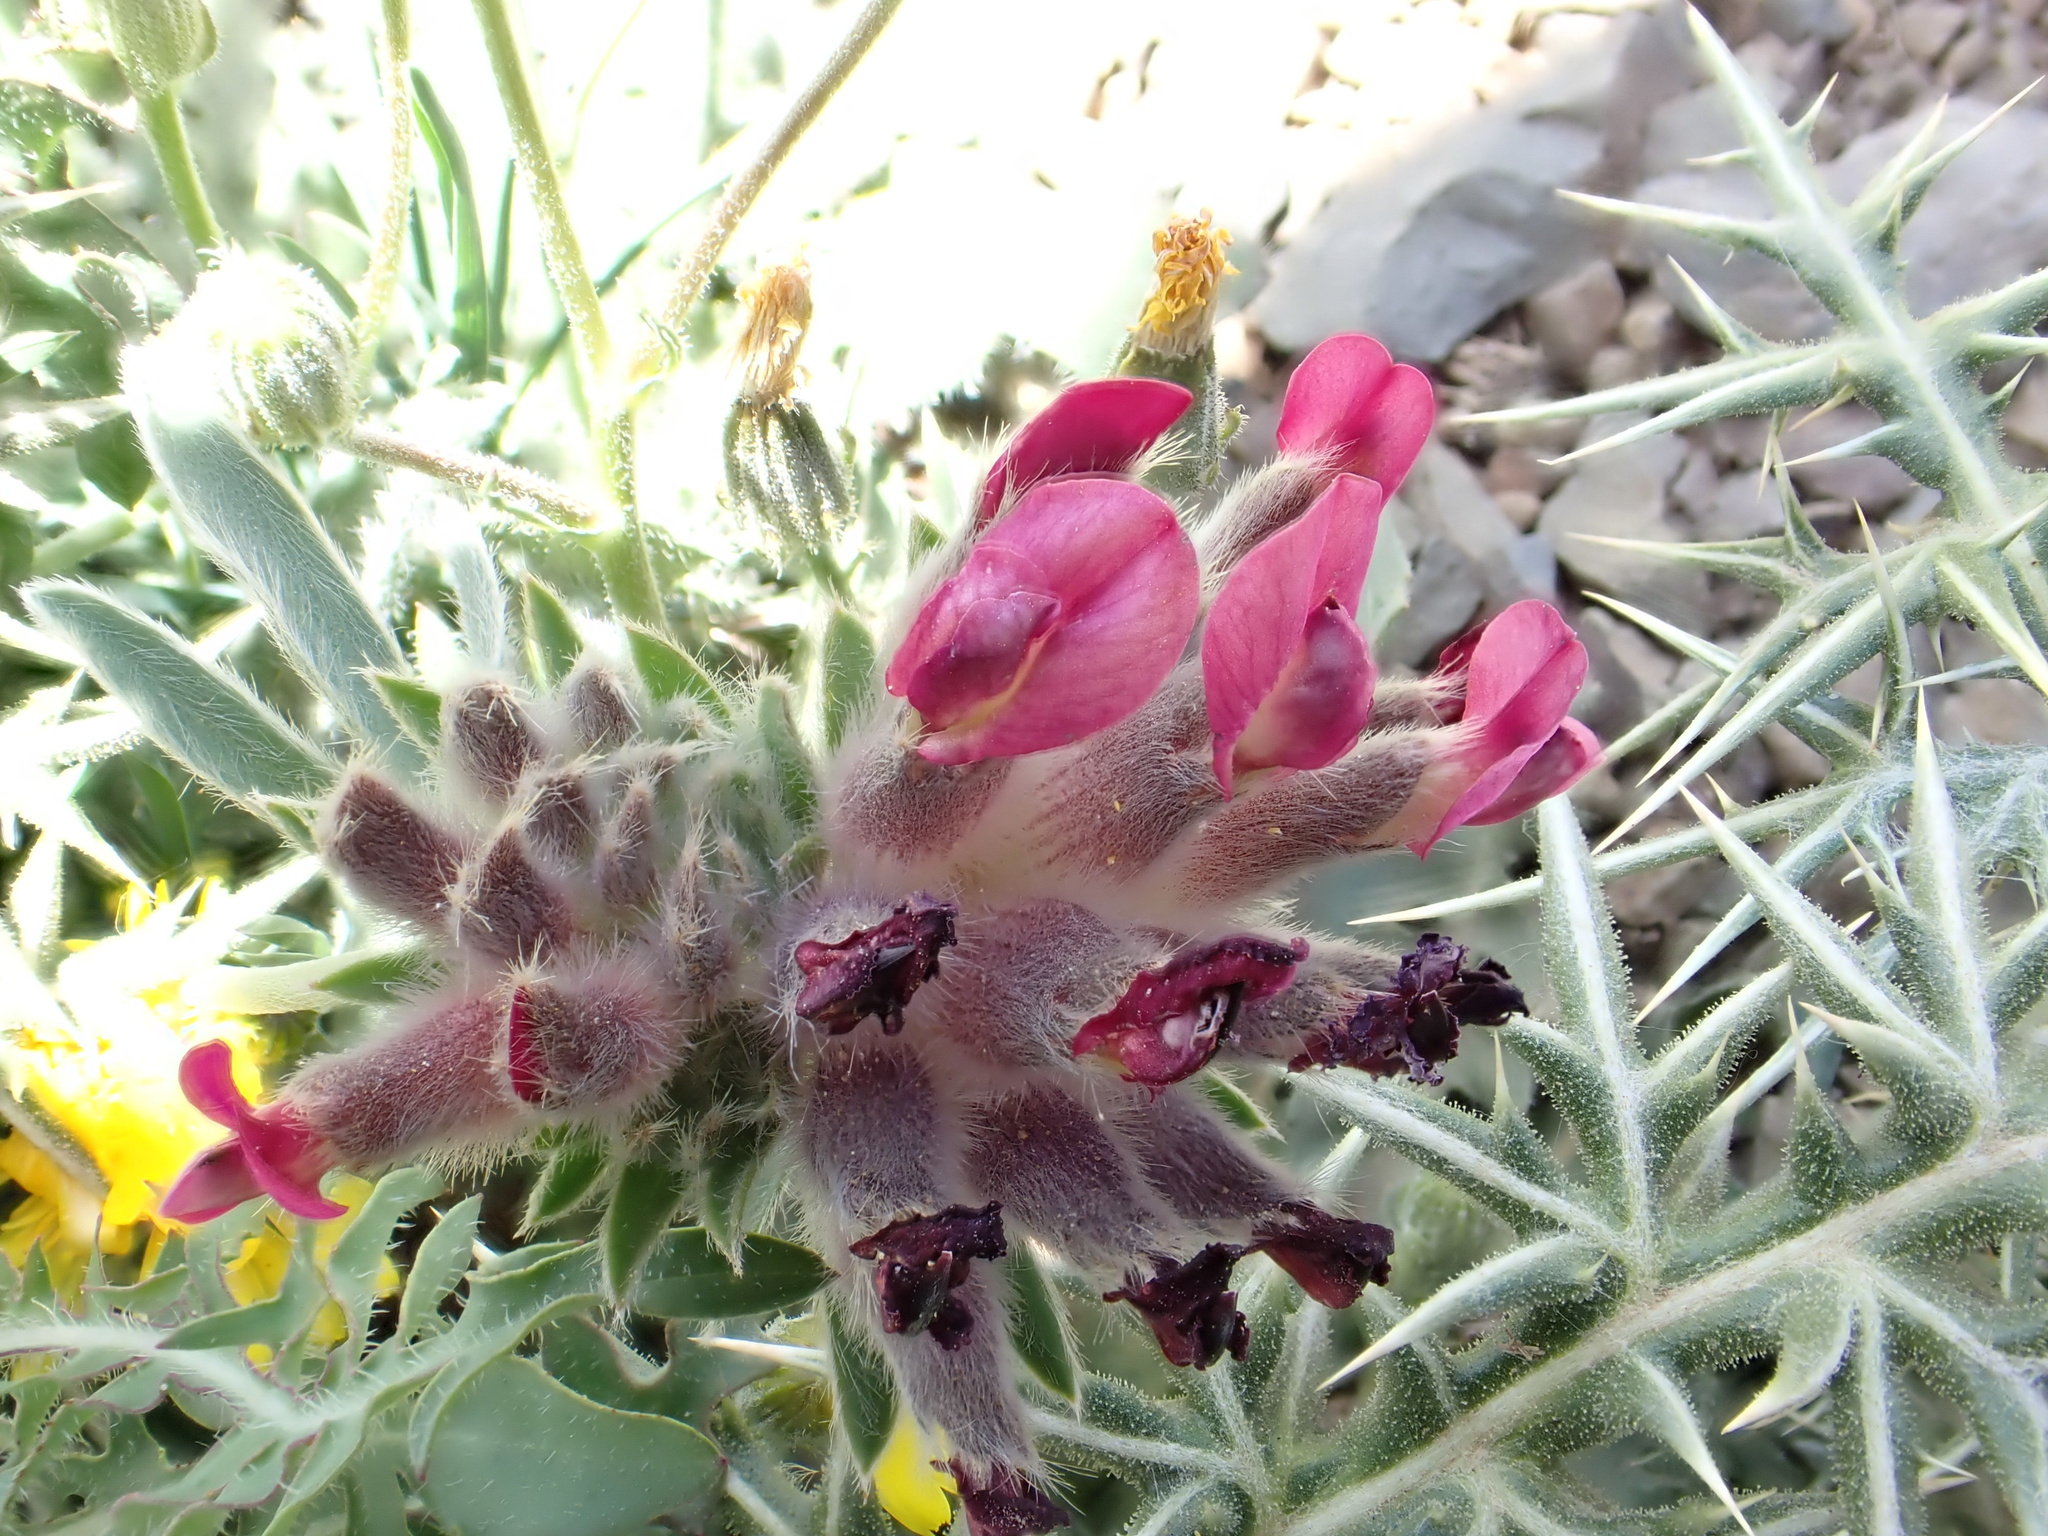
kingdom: Plantae
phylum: Tracheophyta
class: Magnoliopsida
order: Fabales
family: Fabaceae
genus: Anthyllis
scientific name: Anthyllis vulneraria
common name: Kidney vetch
